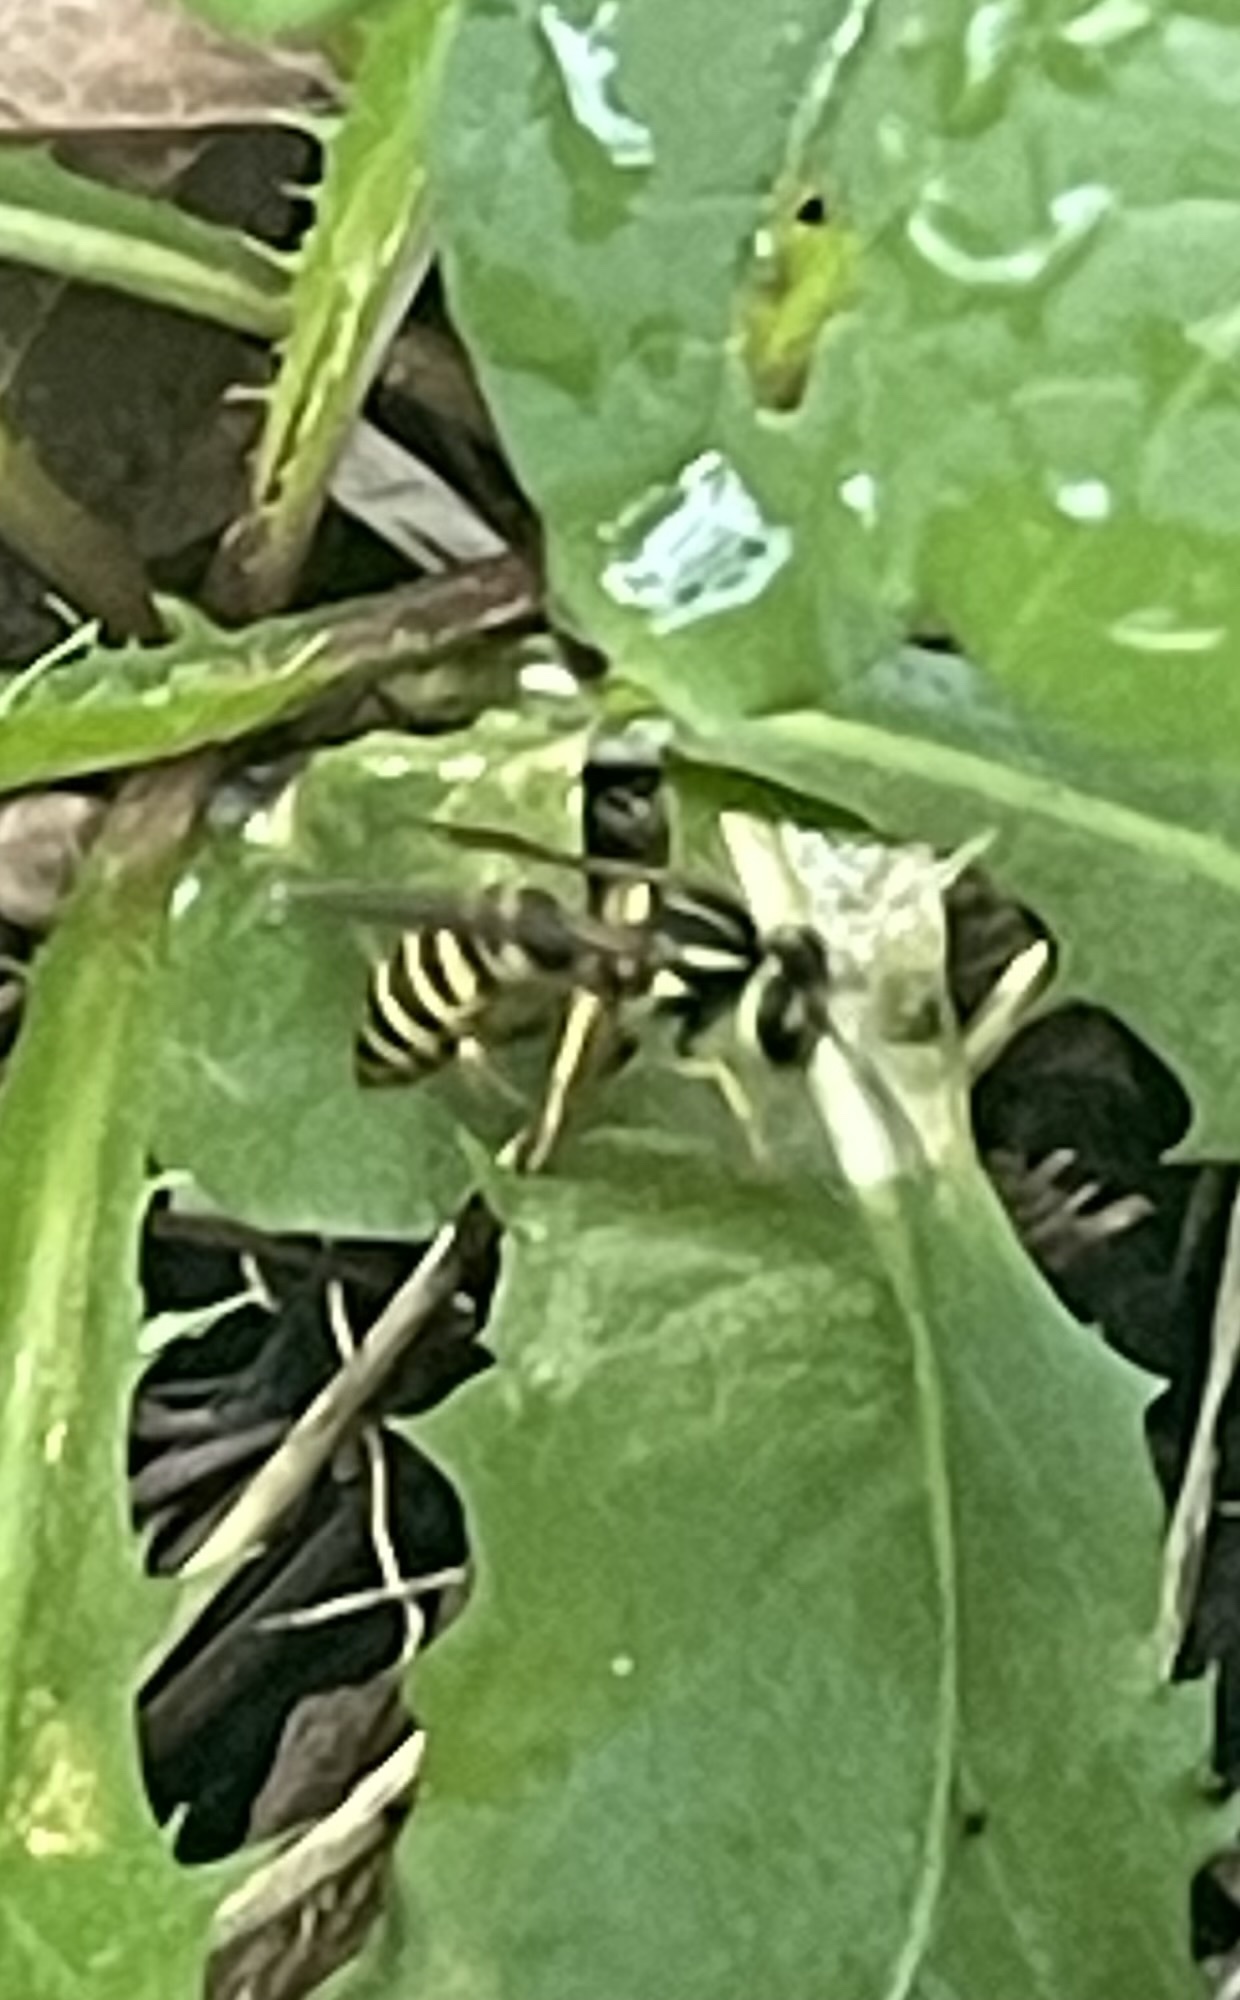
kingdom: Animalia
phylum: Arthropoda
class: Insecta
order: Hymenoptera
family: Vespidae
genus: Vespula
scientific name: Vespula squamosa
